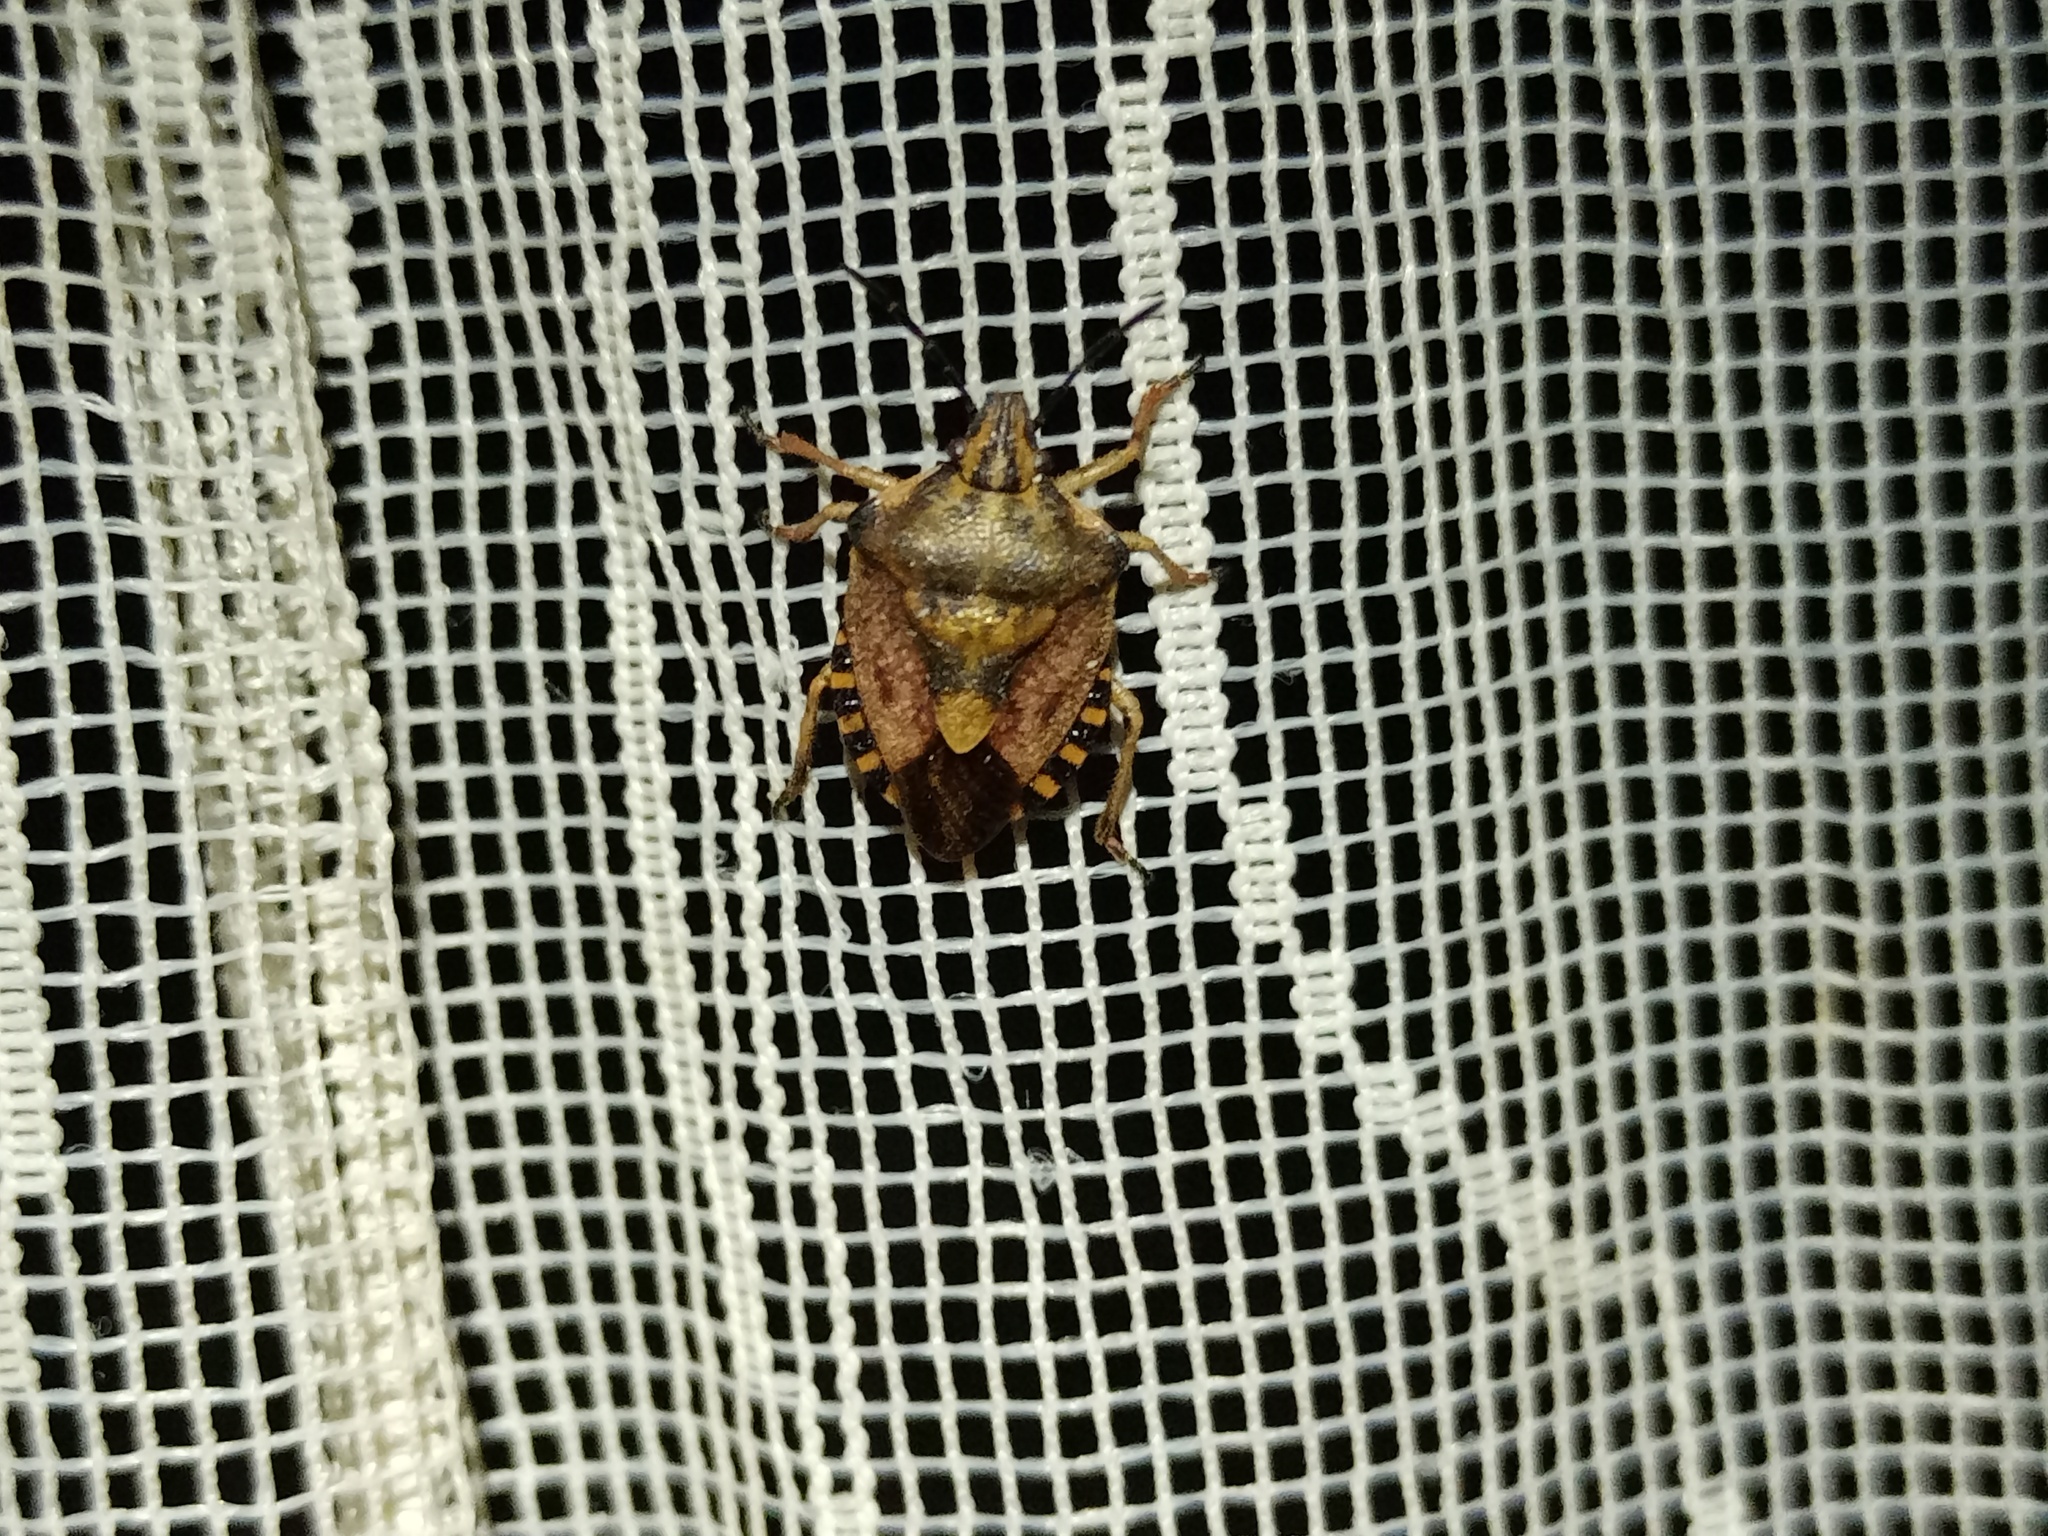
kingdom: Animalia
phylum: Arthropoda
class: Insecta
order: Hemiptera
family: Pentatomidae
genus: Carpocoris
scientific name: Carpocoris purpureipennis
